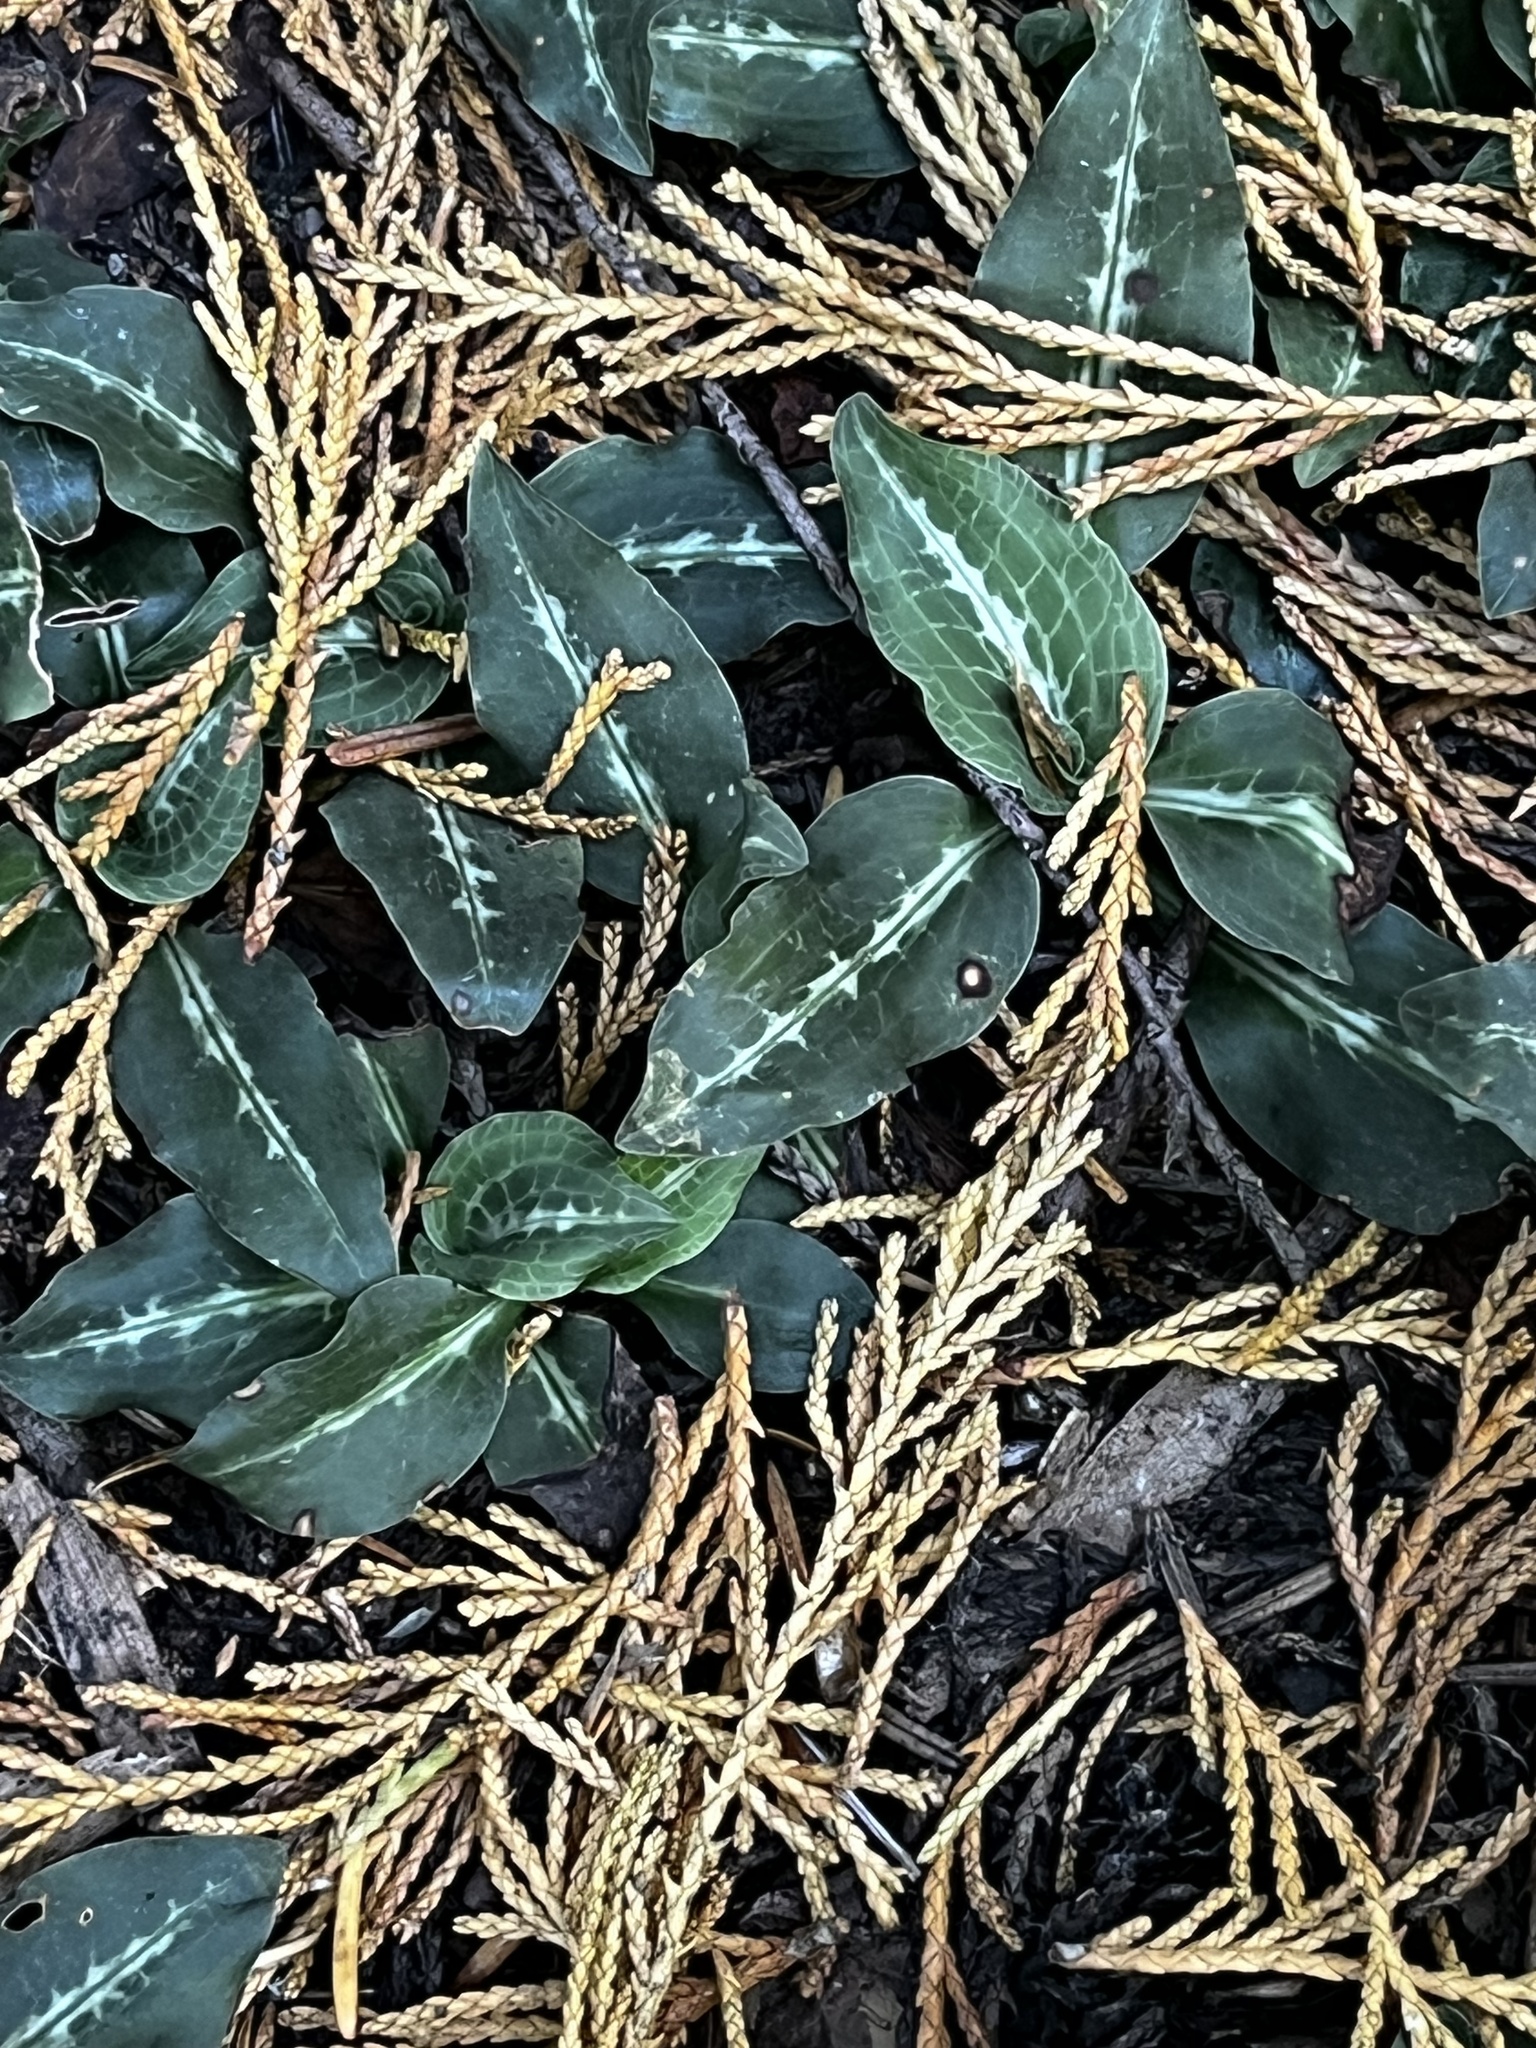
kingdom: Plantae
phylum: Tracheophyta
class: Liliopsida
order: Asparagales
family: Orchidaceae
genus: Goodyera
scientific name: Goodyera oblongifolia
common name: Giant rattlesnake-plantain
